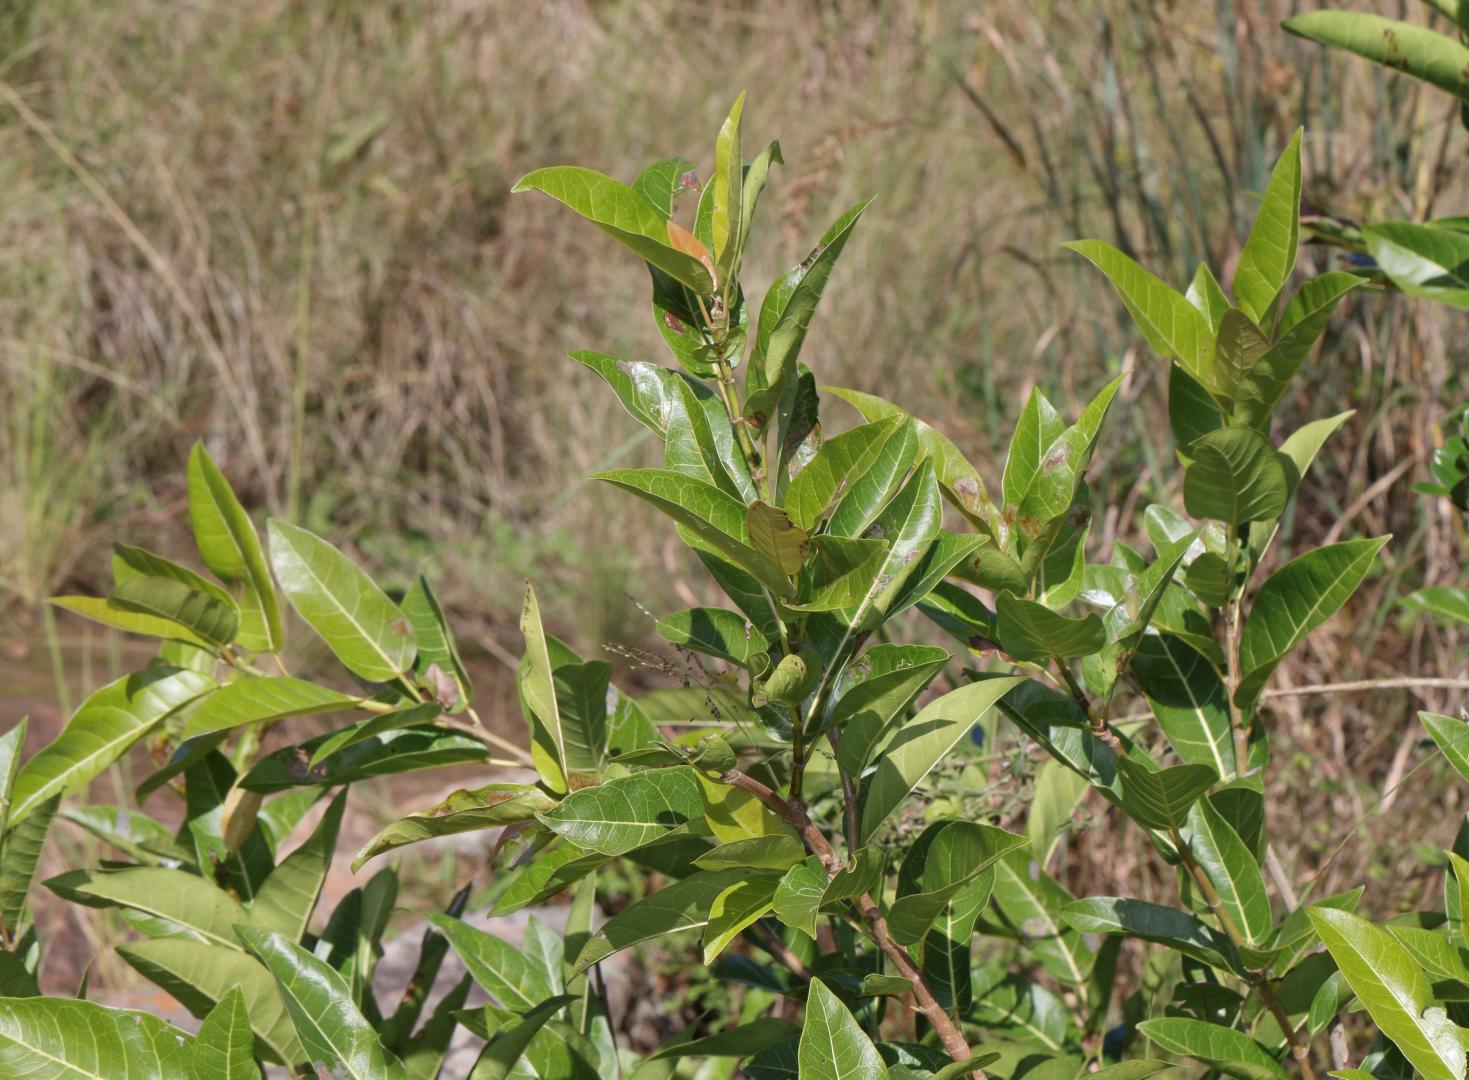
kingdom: Plantae
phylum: Tracheophyta
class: Magnoliopsida
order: Rosales
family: Moraceae
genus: Ficus
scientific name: Ficus ingens
